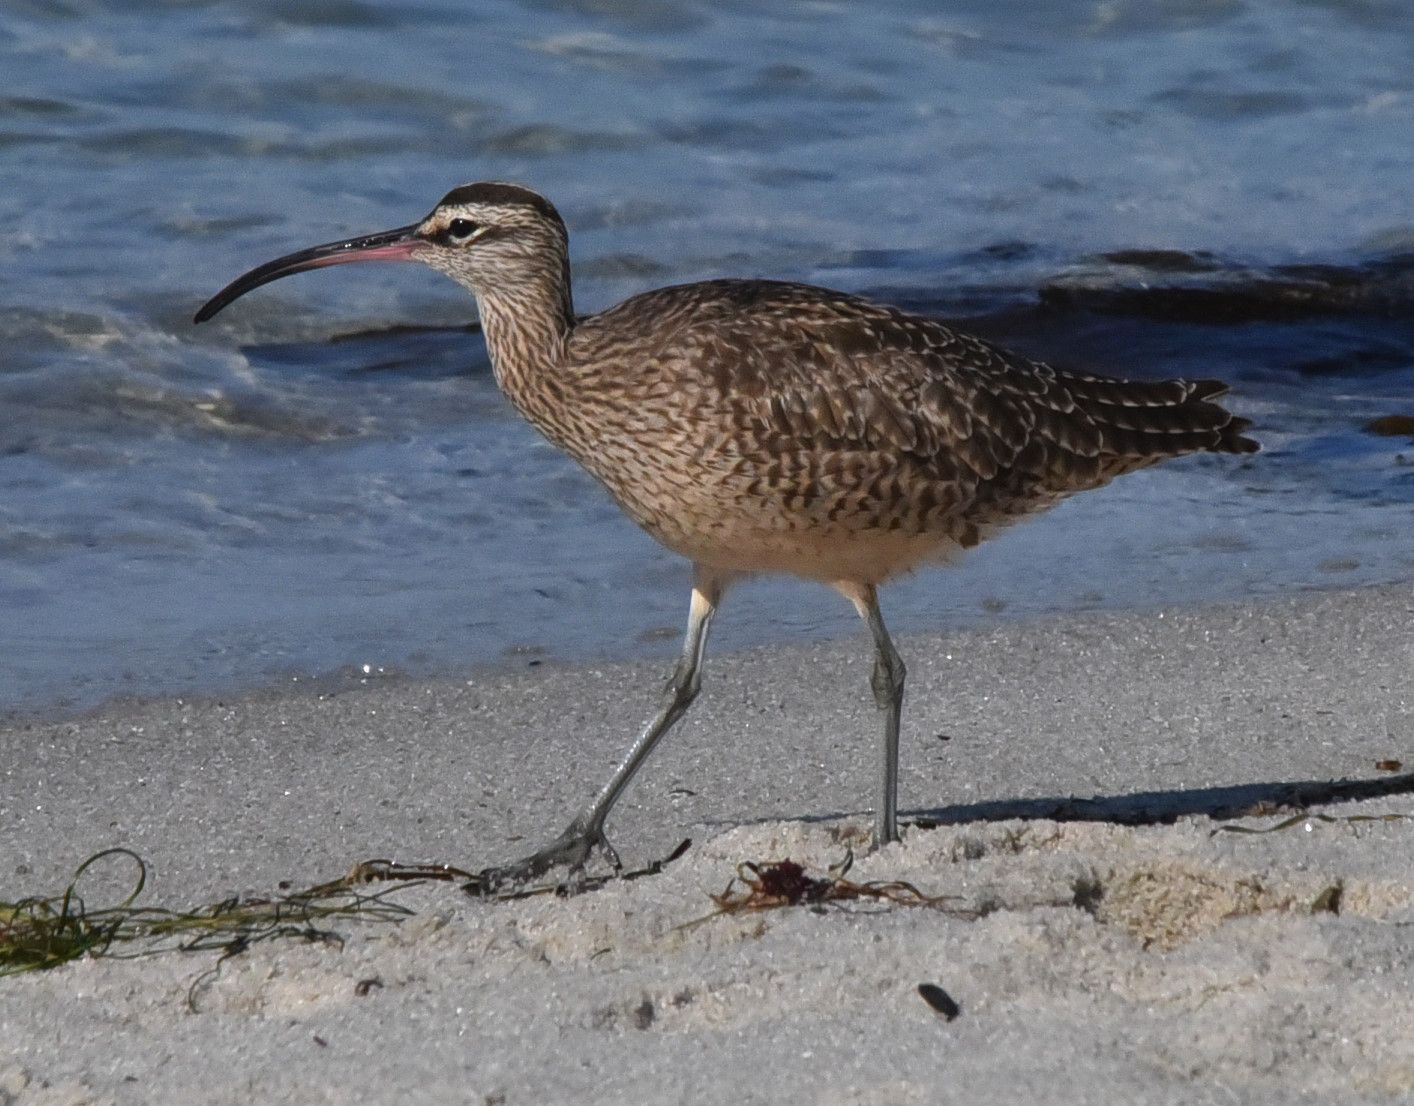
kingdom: Animalia
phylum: Chordata
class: Aves
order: Charadriiformes
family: Scolopacidae
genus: Numenius
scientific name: Numenius phaeopus
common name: Whimbrel
